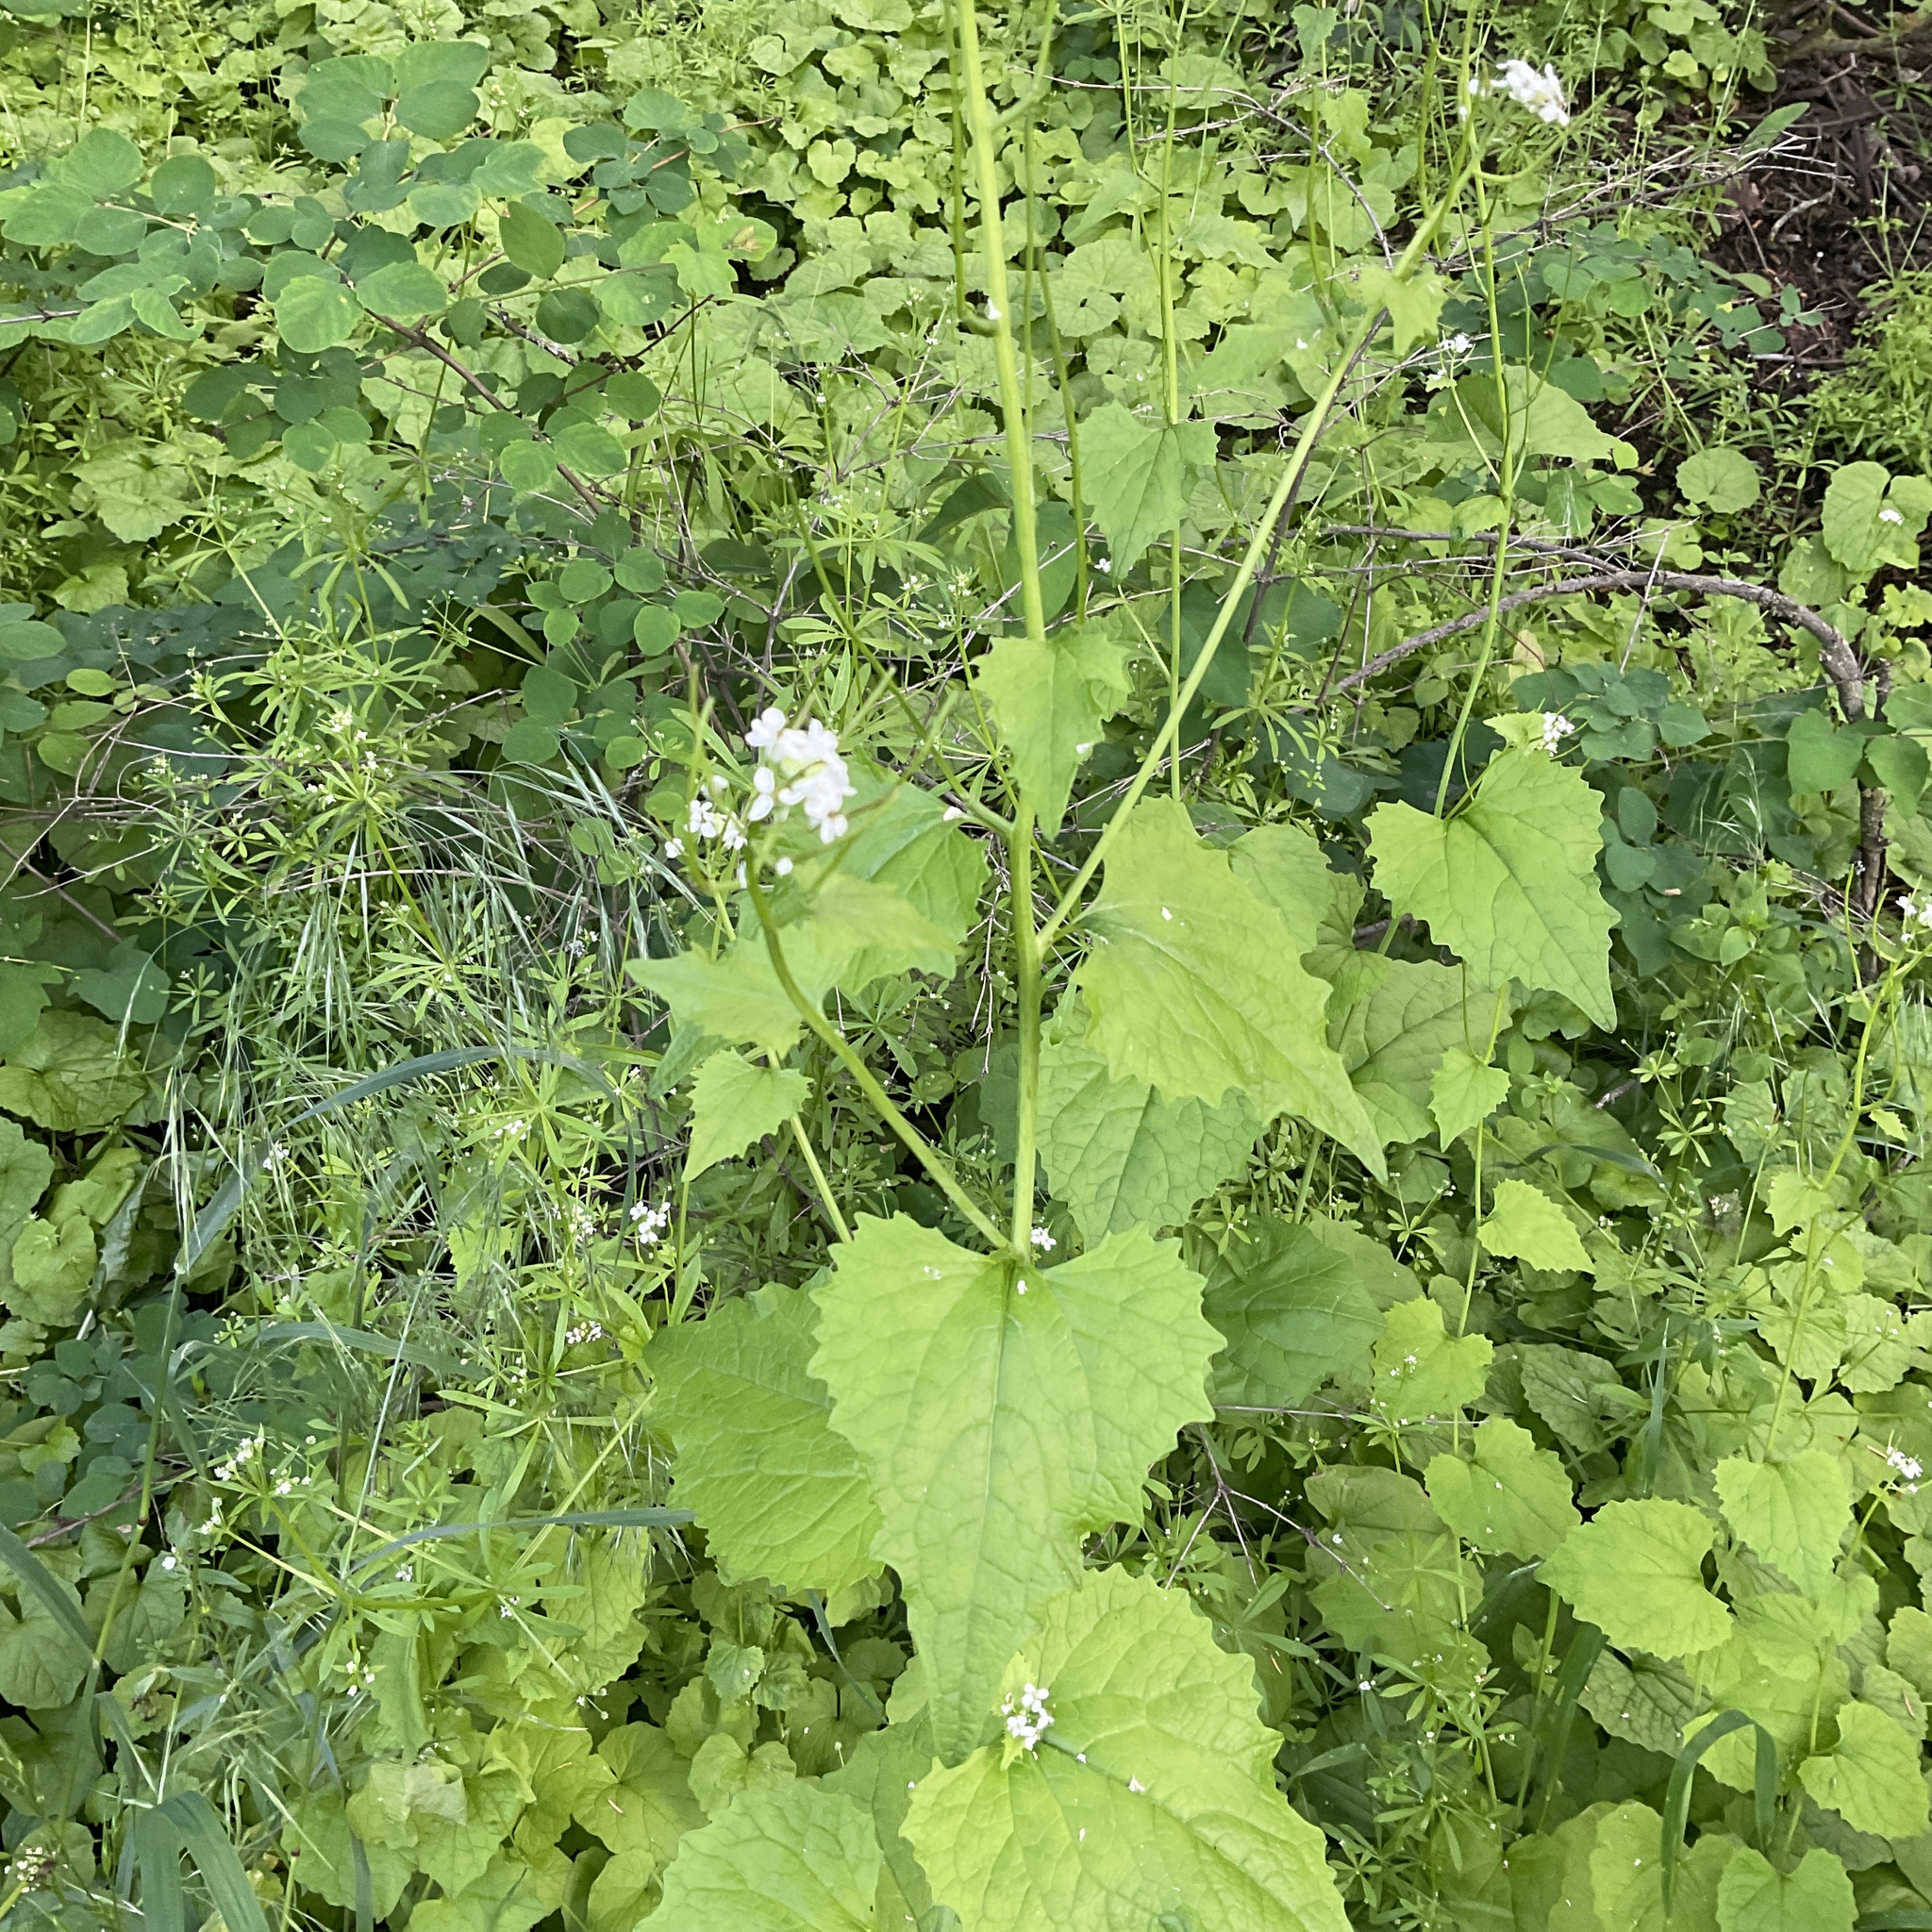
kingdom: Plantae
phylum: Tracheophyta
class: Magnoliopsida
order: Brassicales
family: Brassicaceae
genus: Alliaria
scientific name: Alliaria petiolata
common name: Garlic mustard
